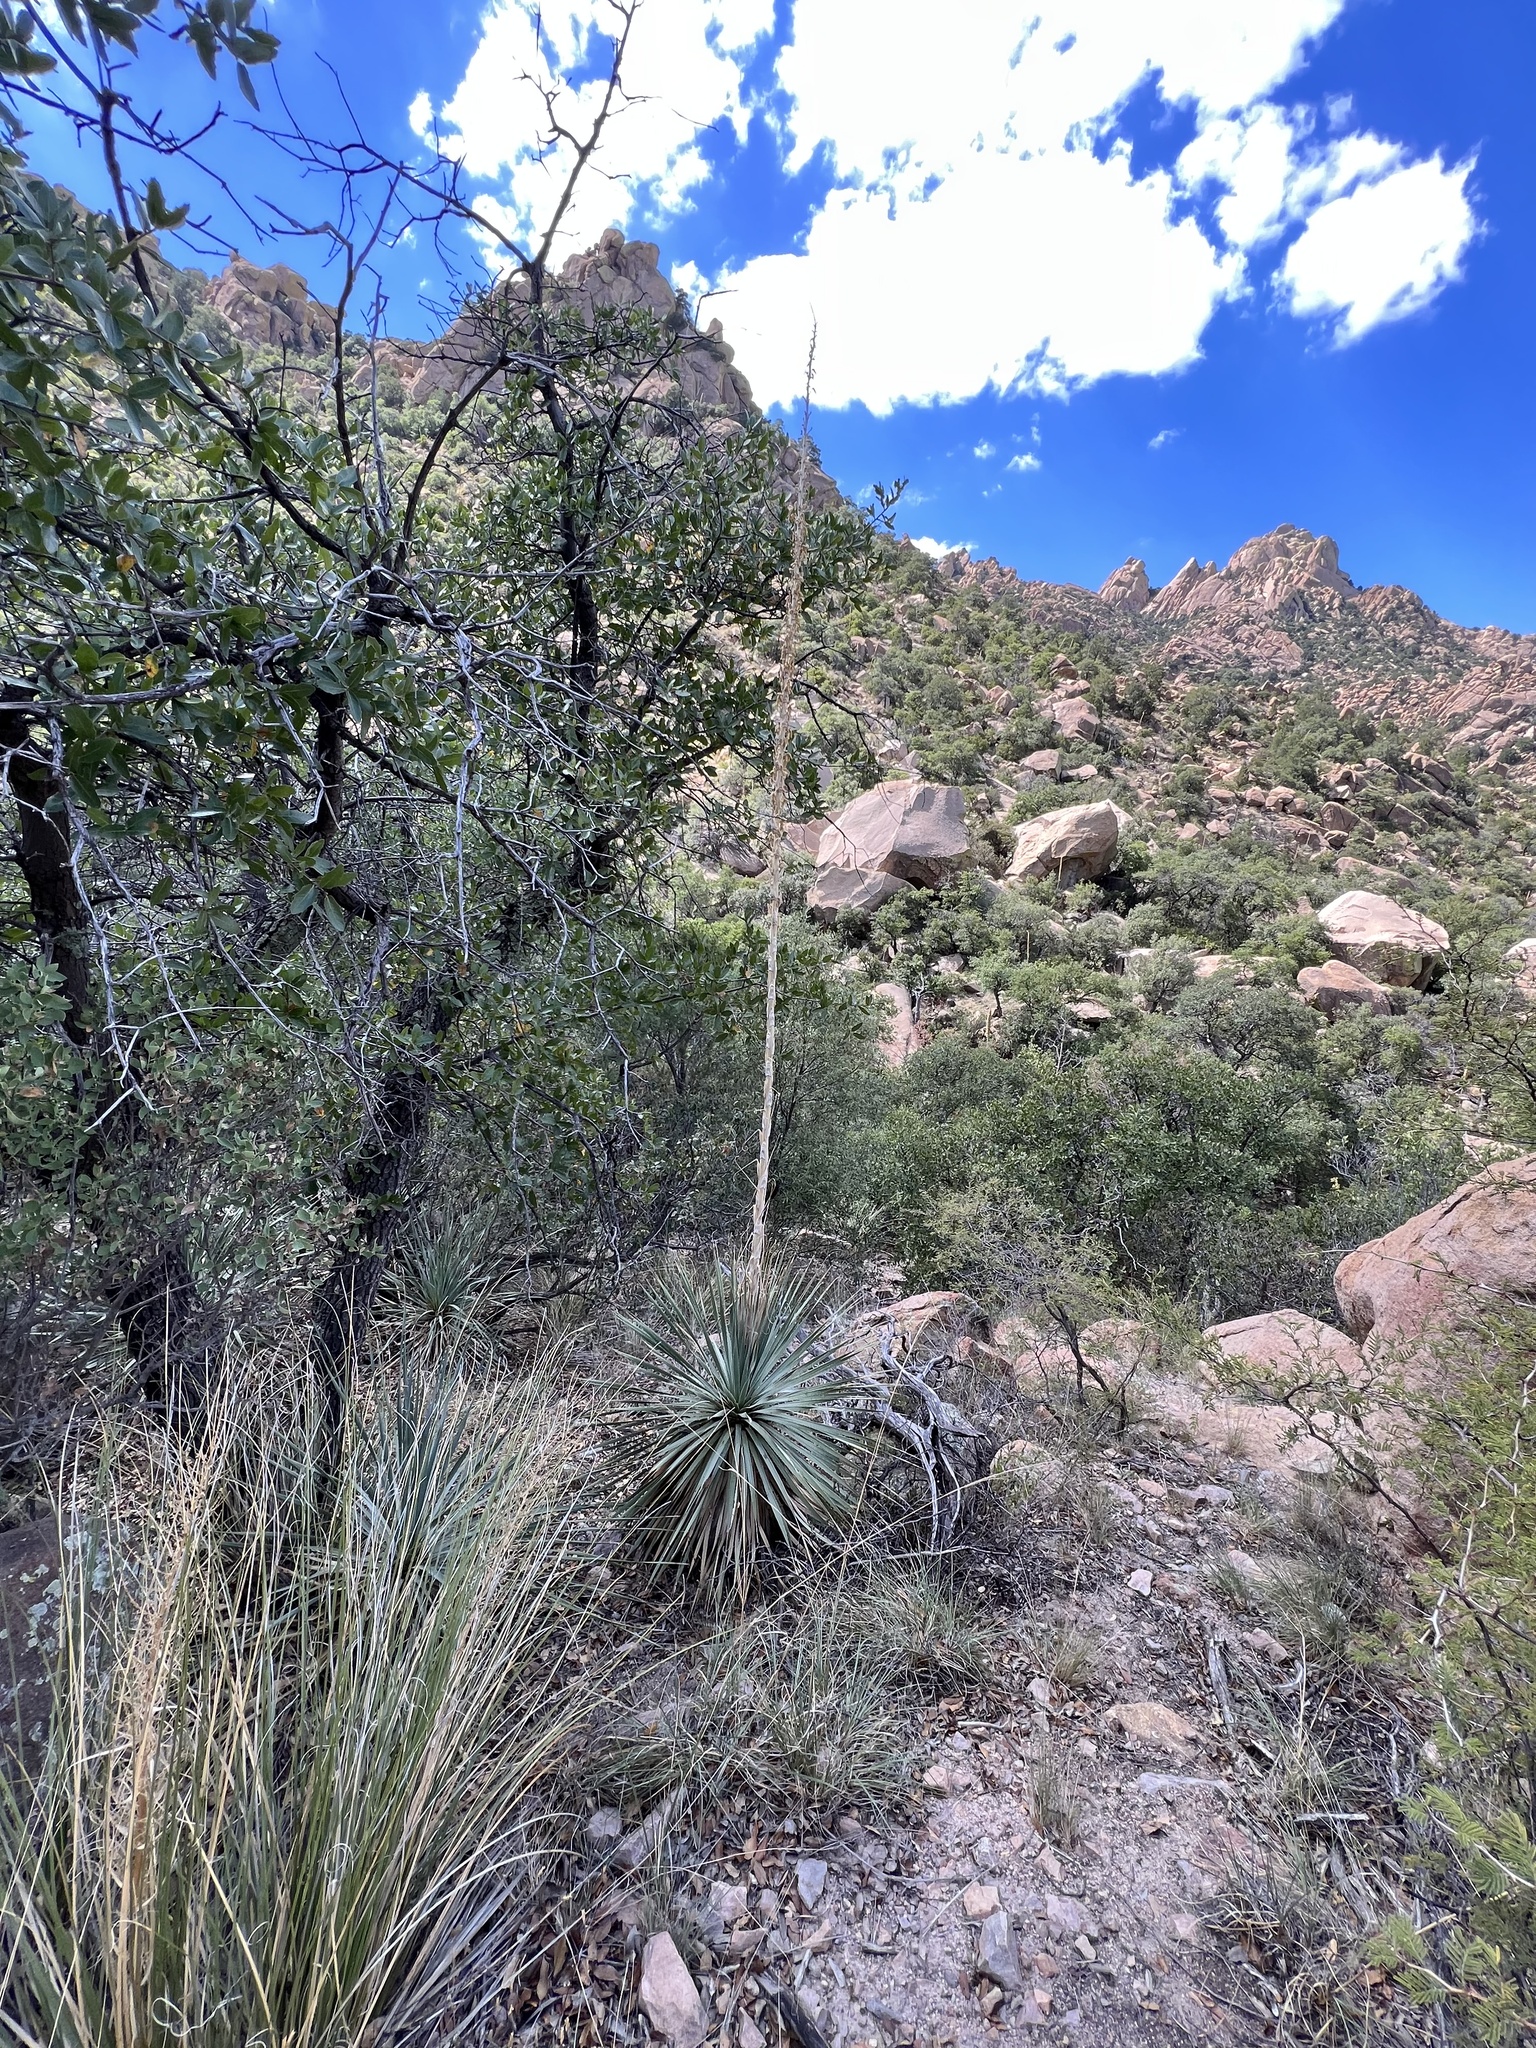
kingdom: Plantae
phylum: Tracheophyta
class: Liliopsida
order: Asparagales
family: Asparagaceae
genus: Dasylirion
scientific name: Dasylirion wheeleri
